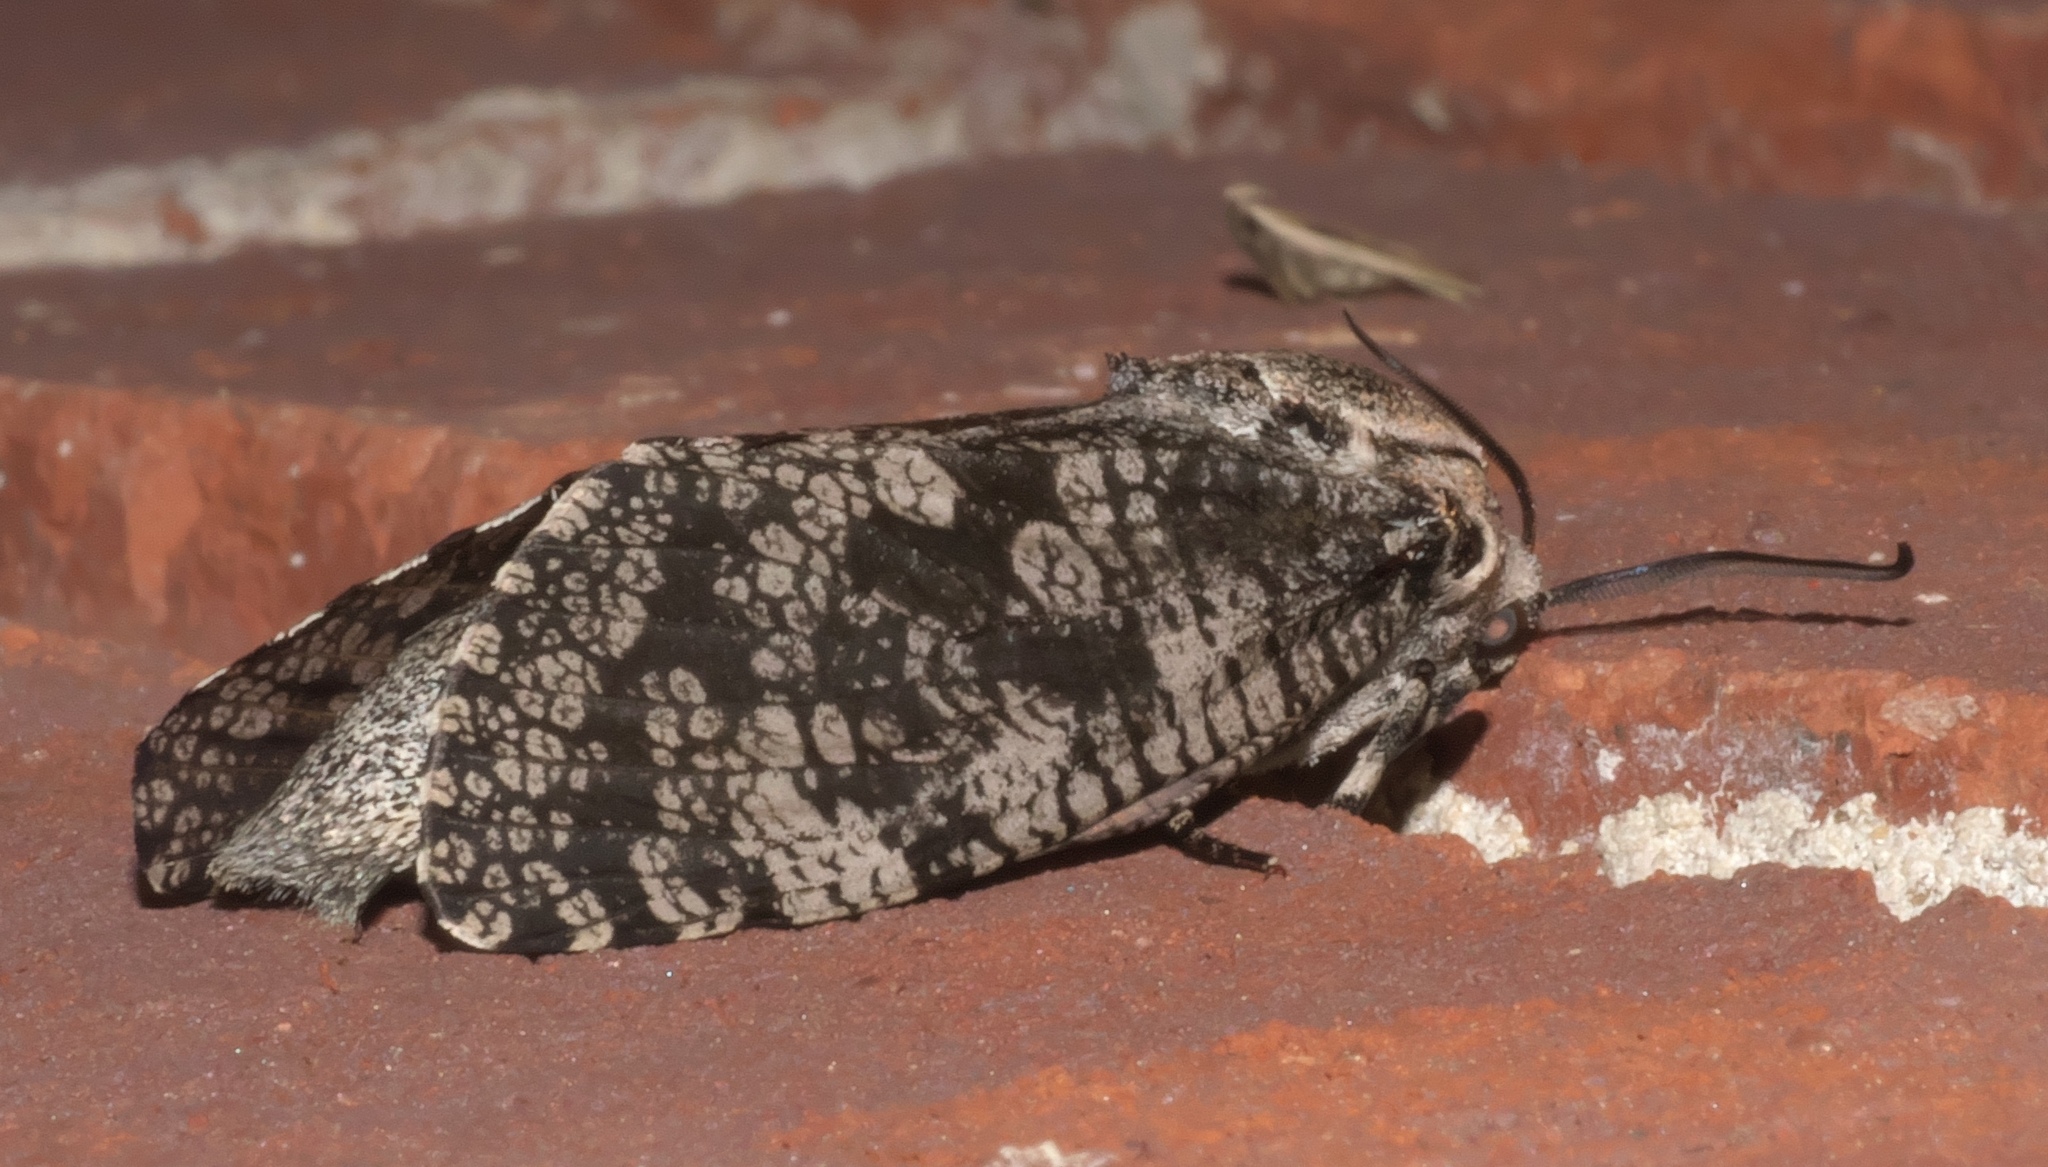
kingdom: Animalia
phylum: Arthropoda
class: Insecta
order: Lepidoptera
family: Cossidae
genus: Prionoxystus
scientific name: Prionoxystus robiniae
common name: Carpenterworm
